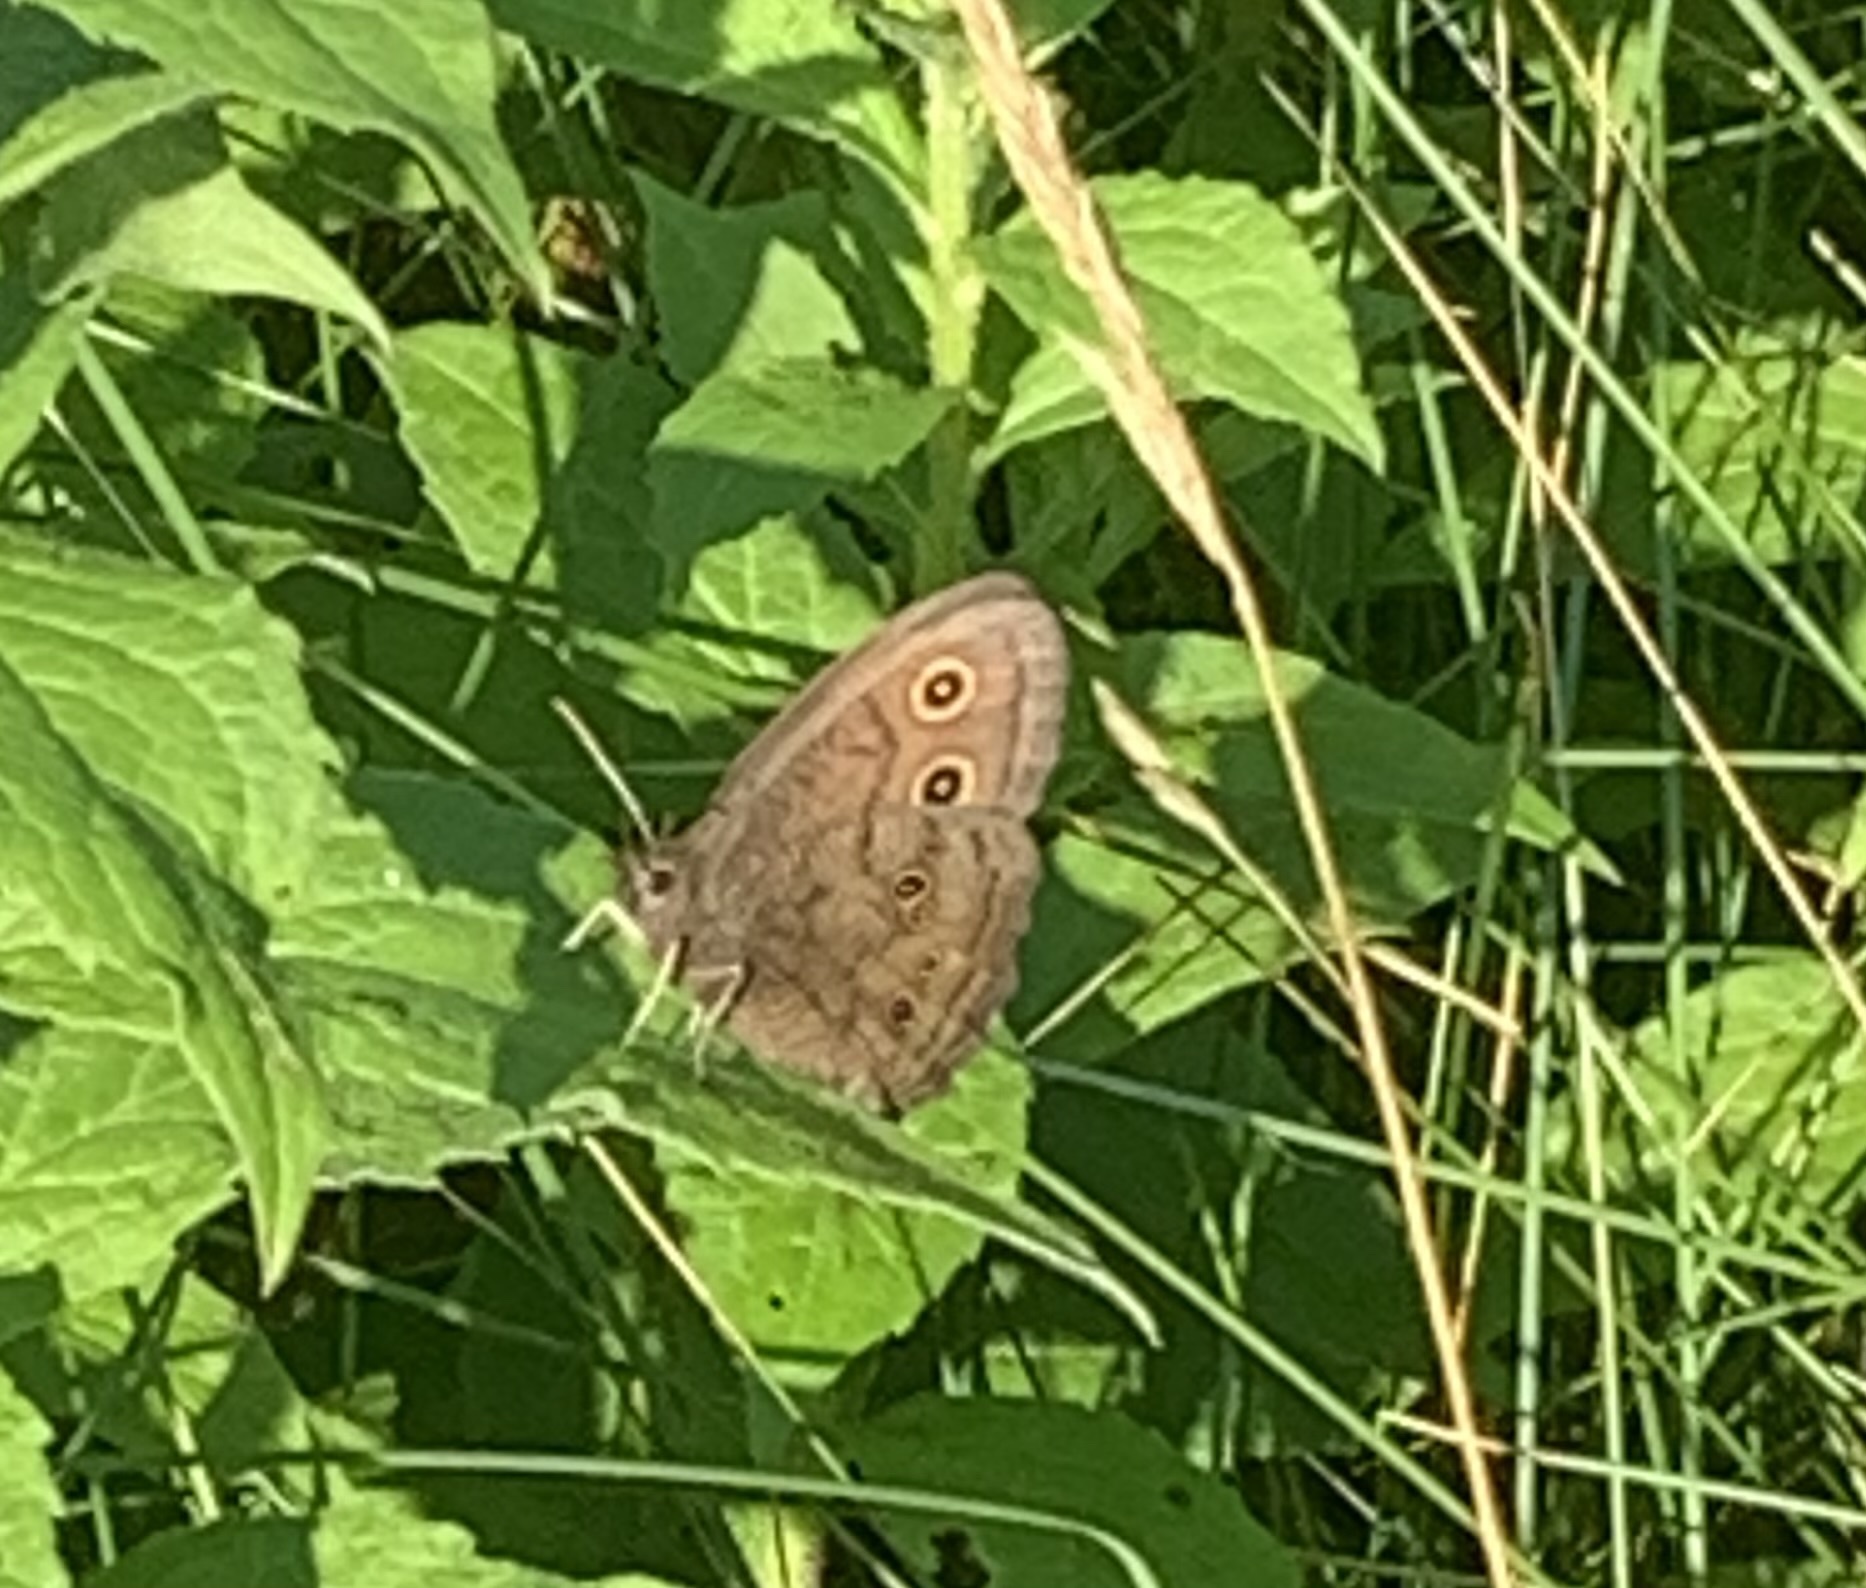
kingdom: Animalia
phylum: Arthropoda
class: Insecta
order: Lepidoptera
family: Nymphalidae
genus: Cercyonis
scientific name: Cercyonis pegala
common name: Common wood-nymph
